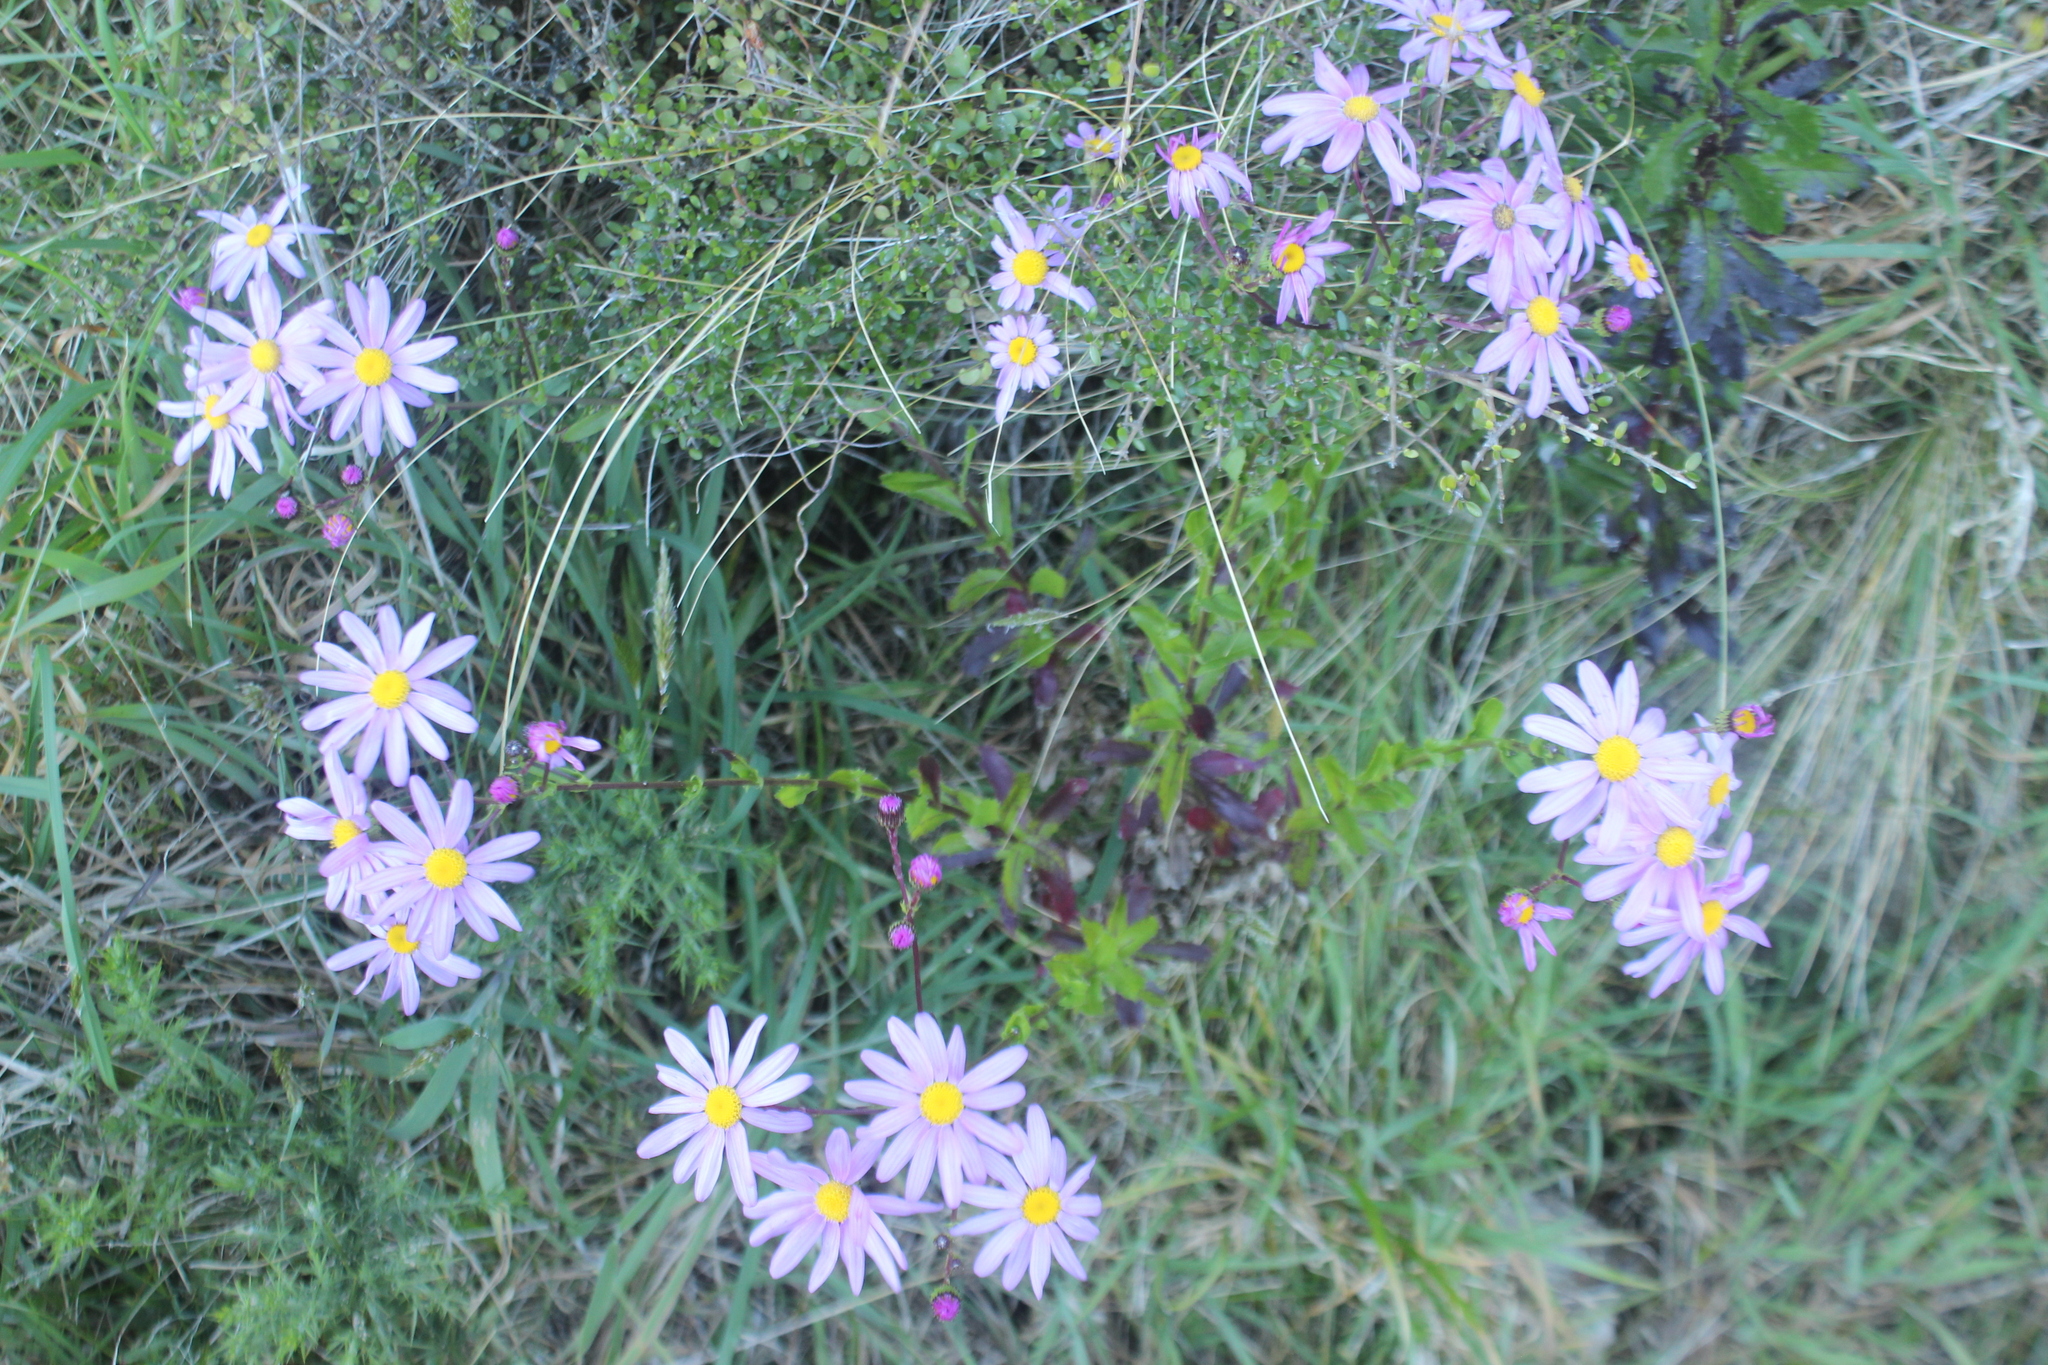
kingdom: Plantae
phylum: Tracheophyta
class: Magnoliopsida
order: Asterales
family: Asteraceae
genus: Senecio
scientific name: Senecio glastifolius
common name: Woad-leaved ragwort
